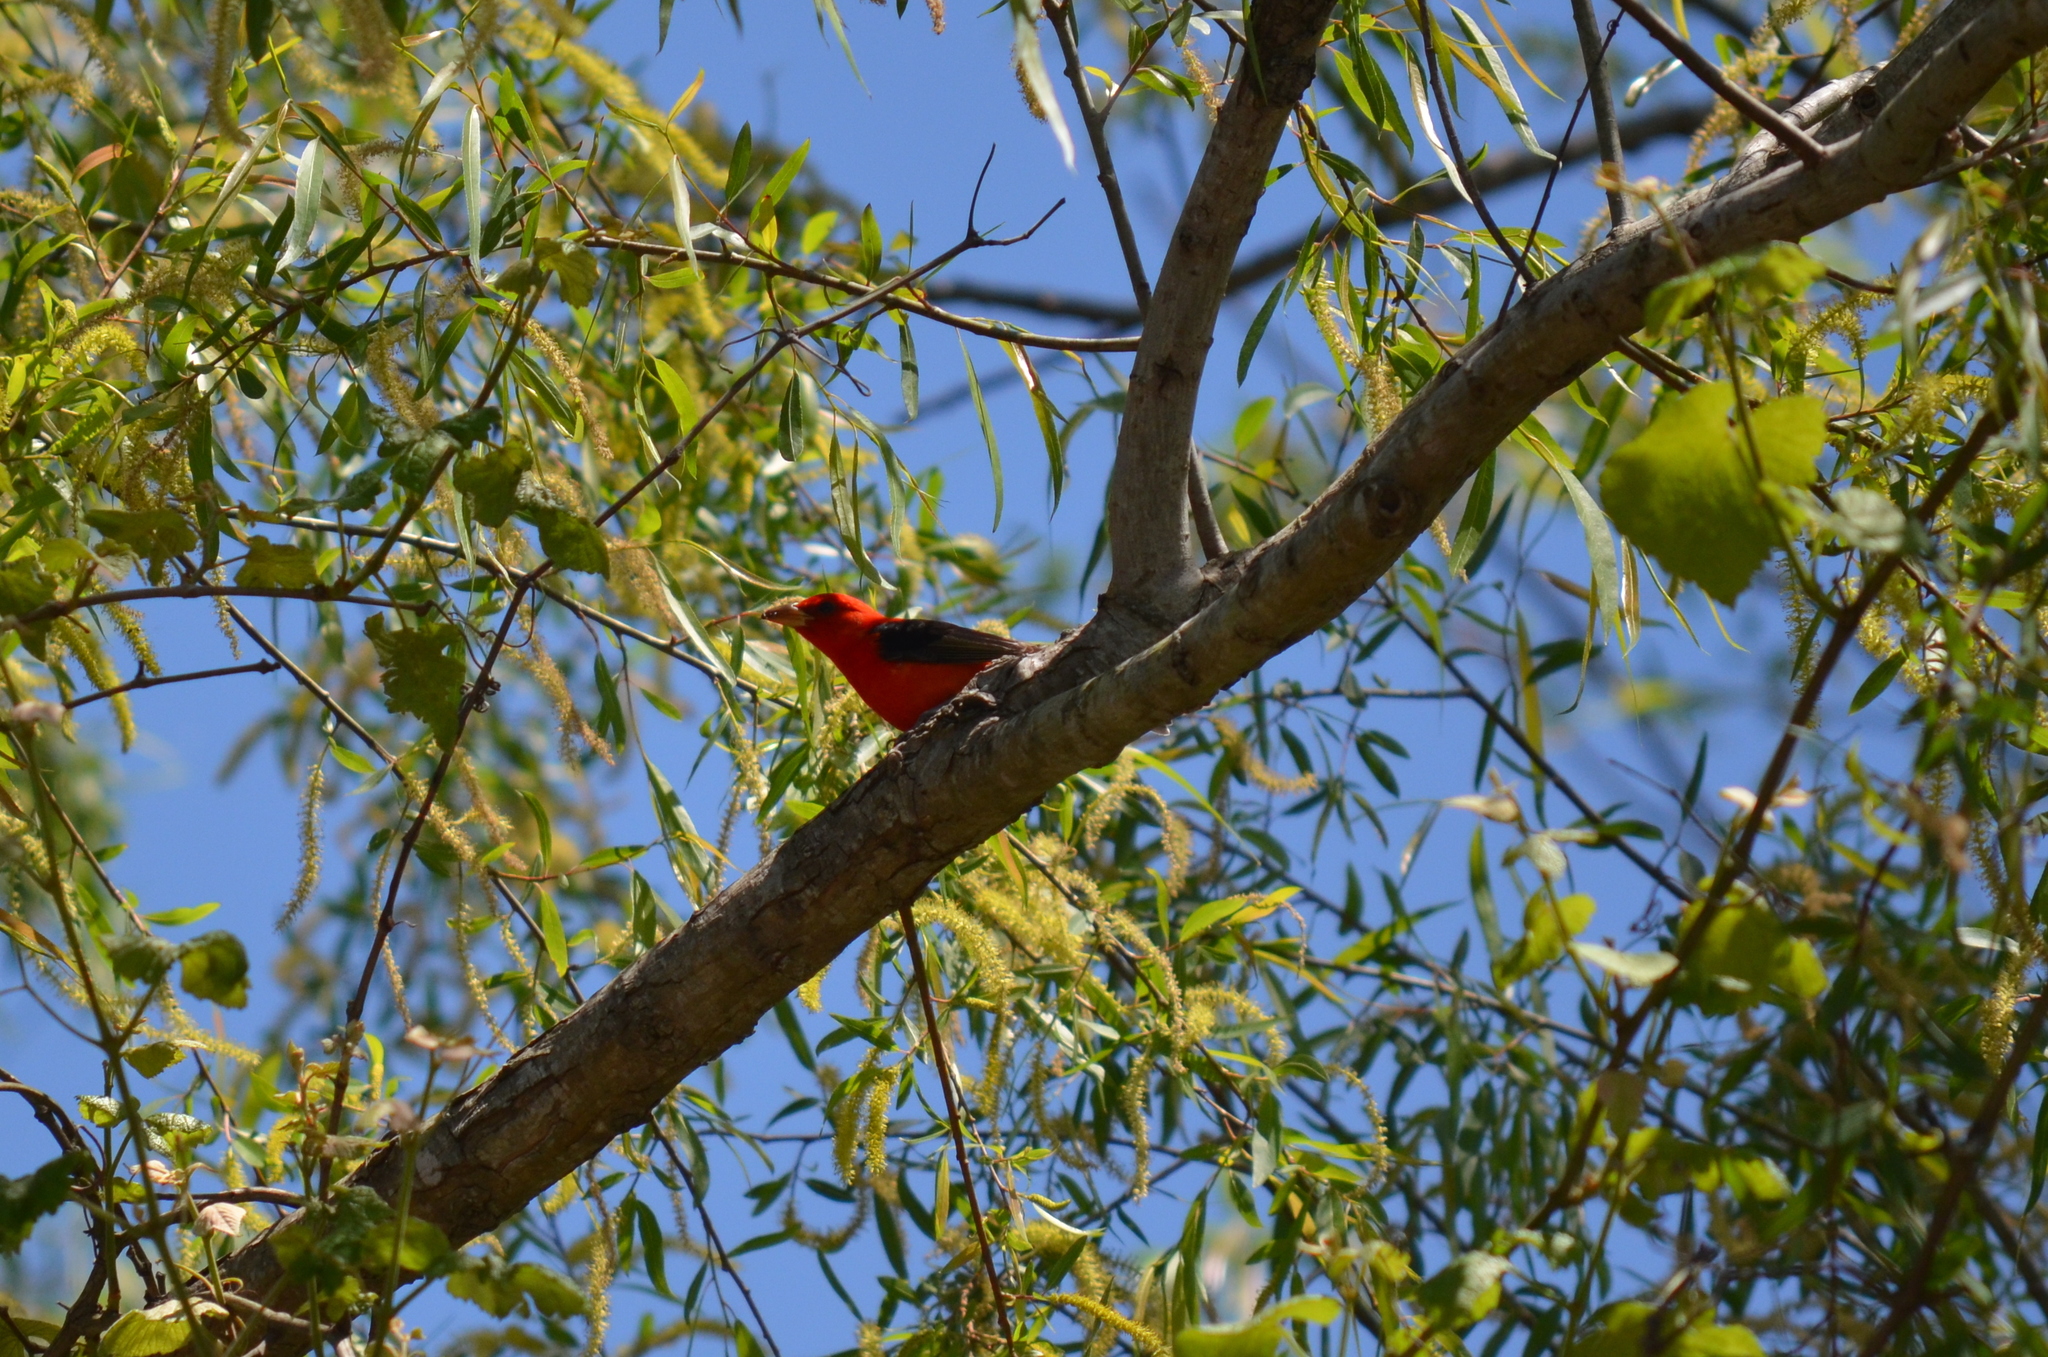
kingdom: Animalia
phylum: Chordata
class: Aves
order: Passeriformes
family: Cardinalidae
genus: Piranga
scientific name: Piranga olivacea
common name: Scarlet tanager
